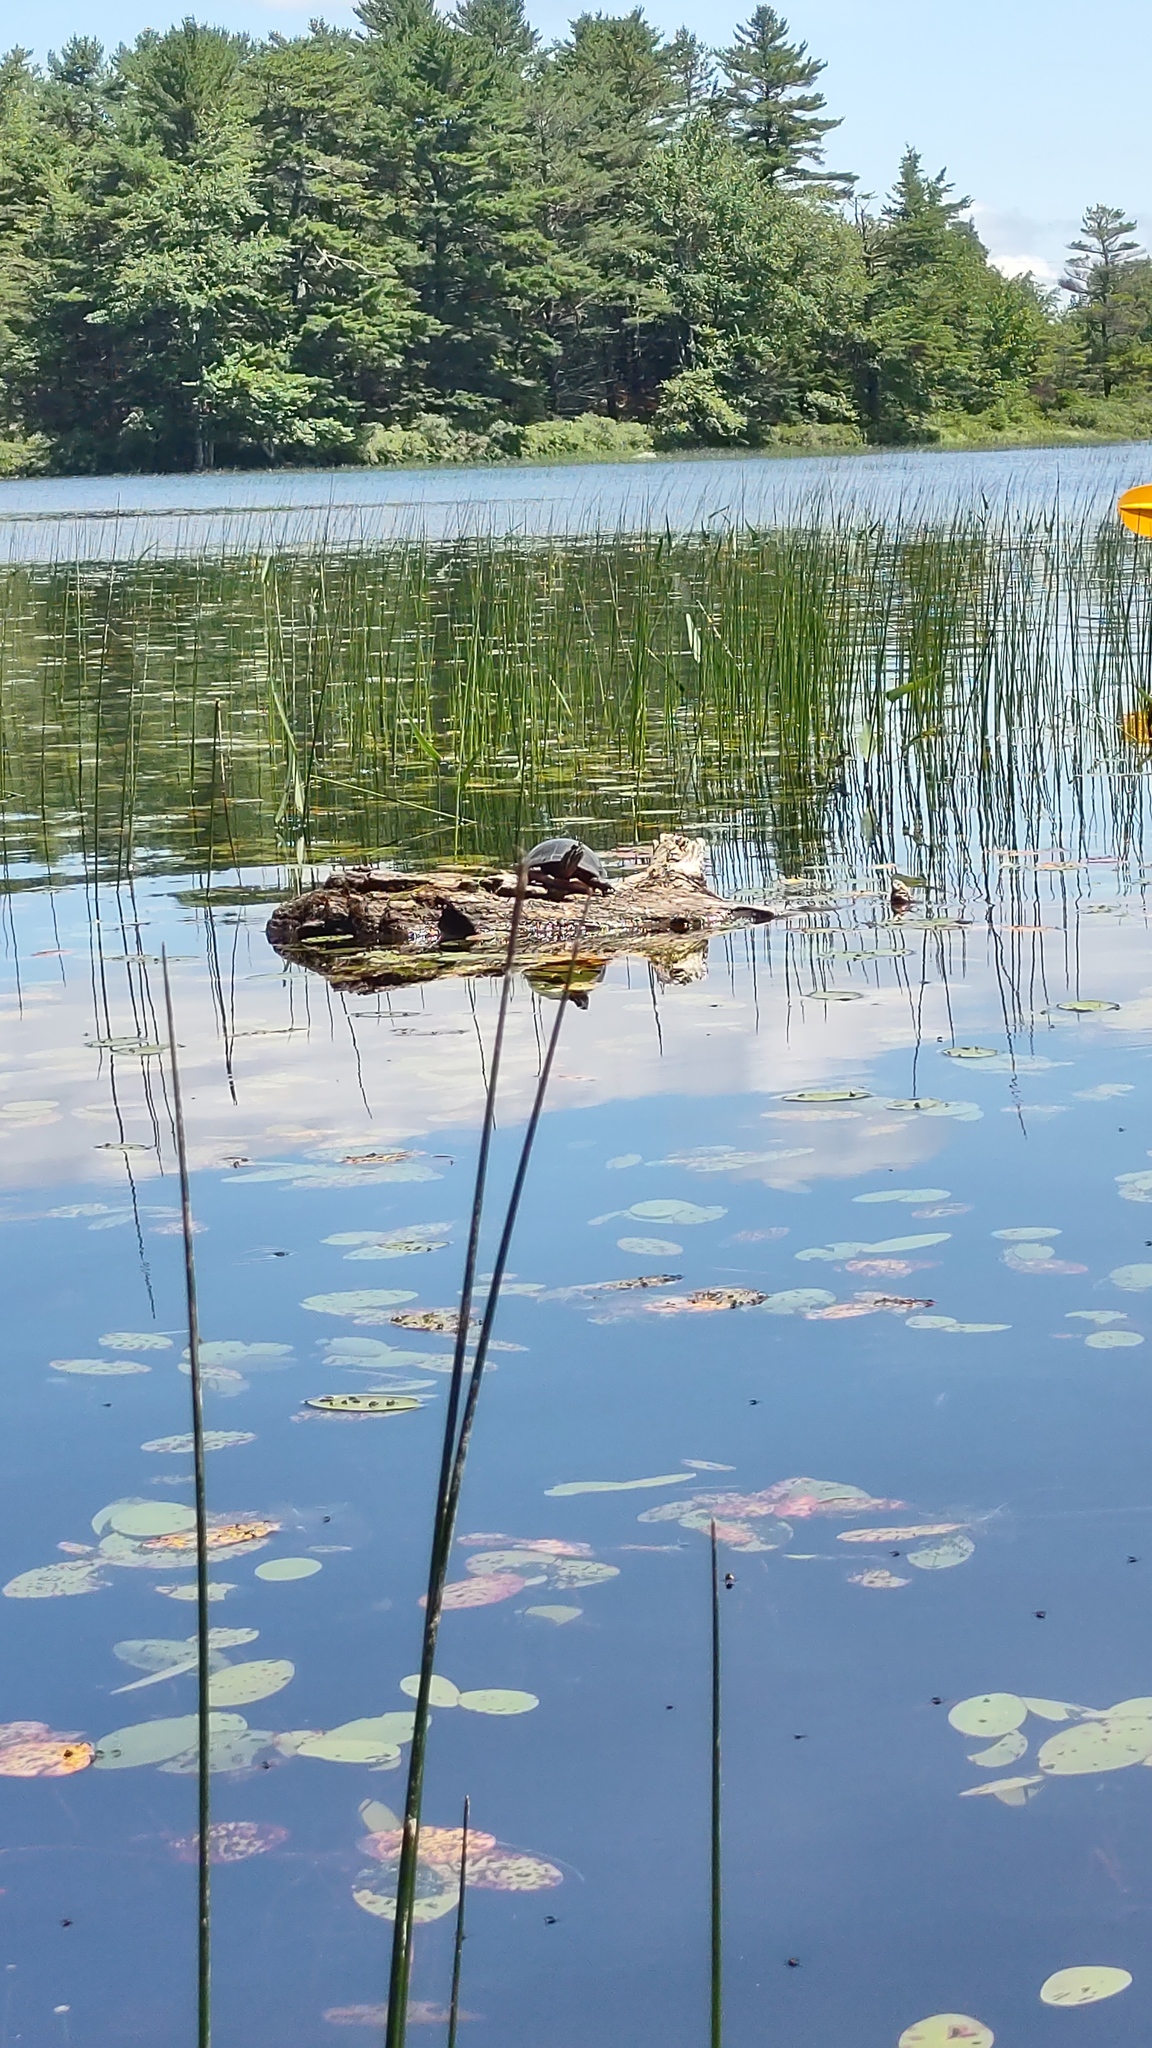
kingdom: Animalia
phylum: Chordata
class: Testudines
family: Emydidae
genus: Chrysemys
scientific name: Chrysemys picta
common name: Painted turtle
